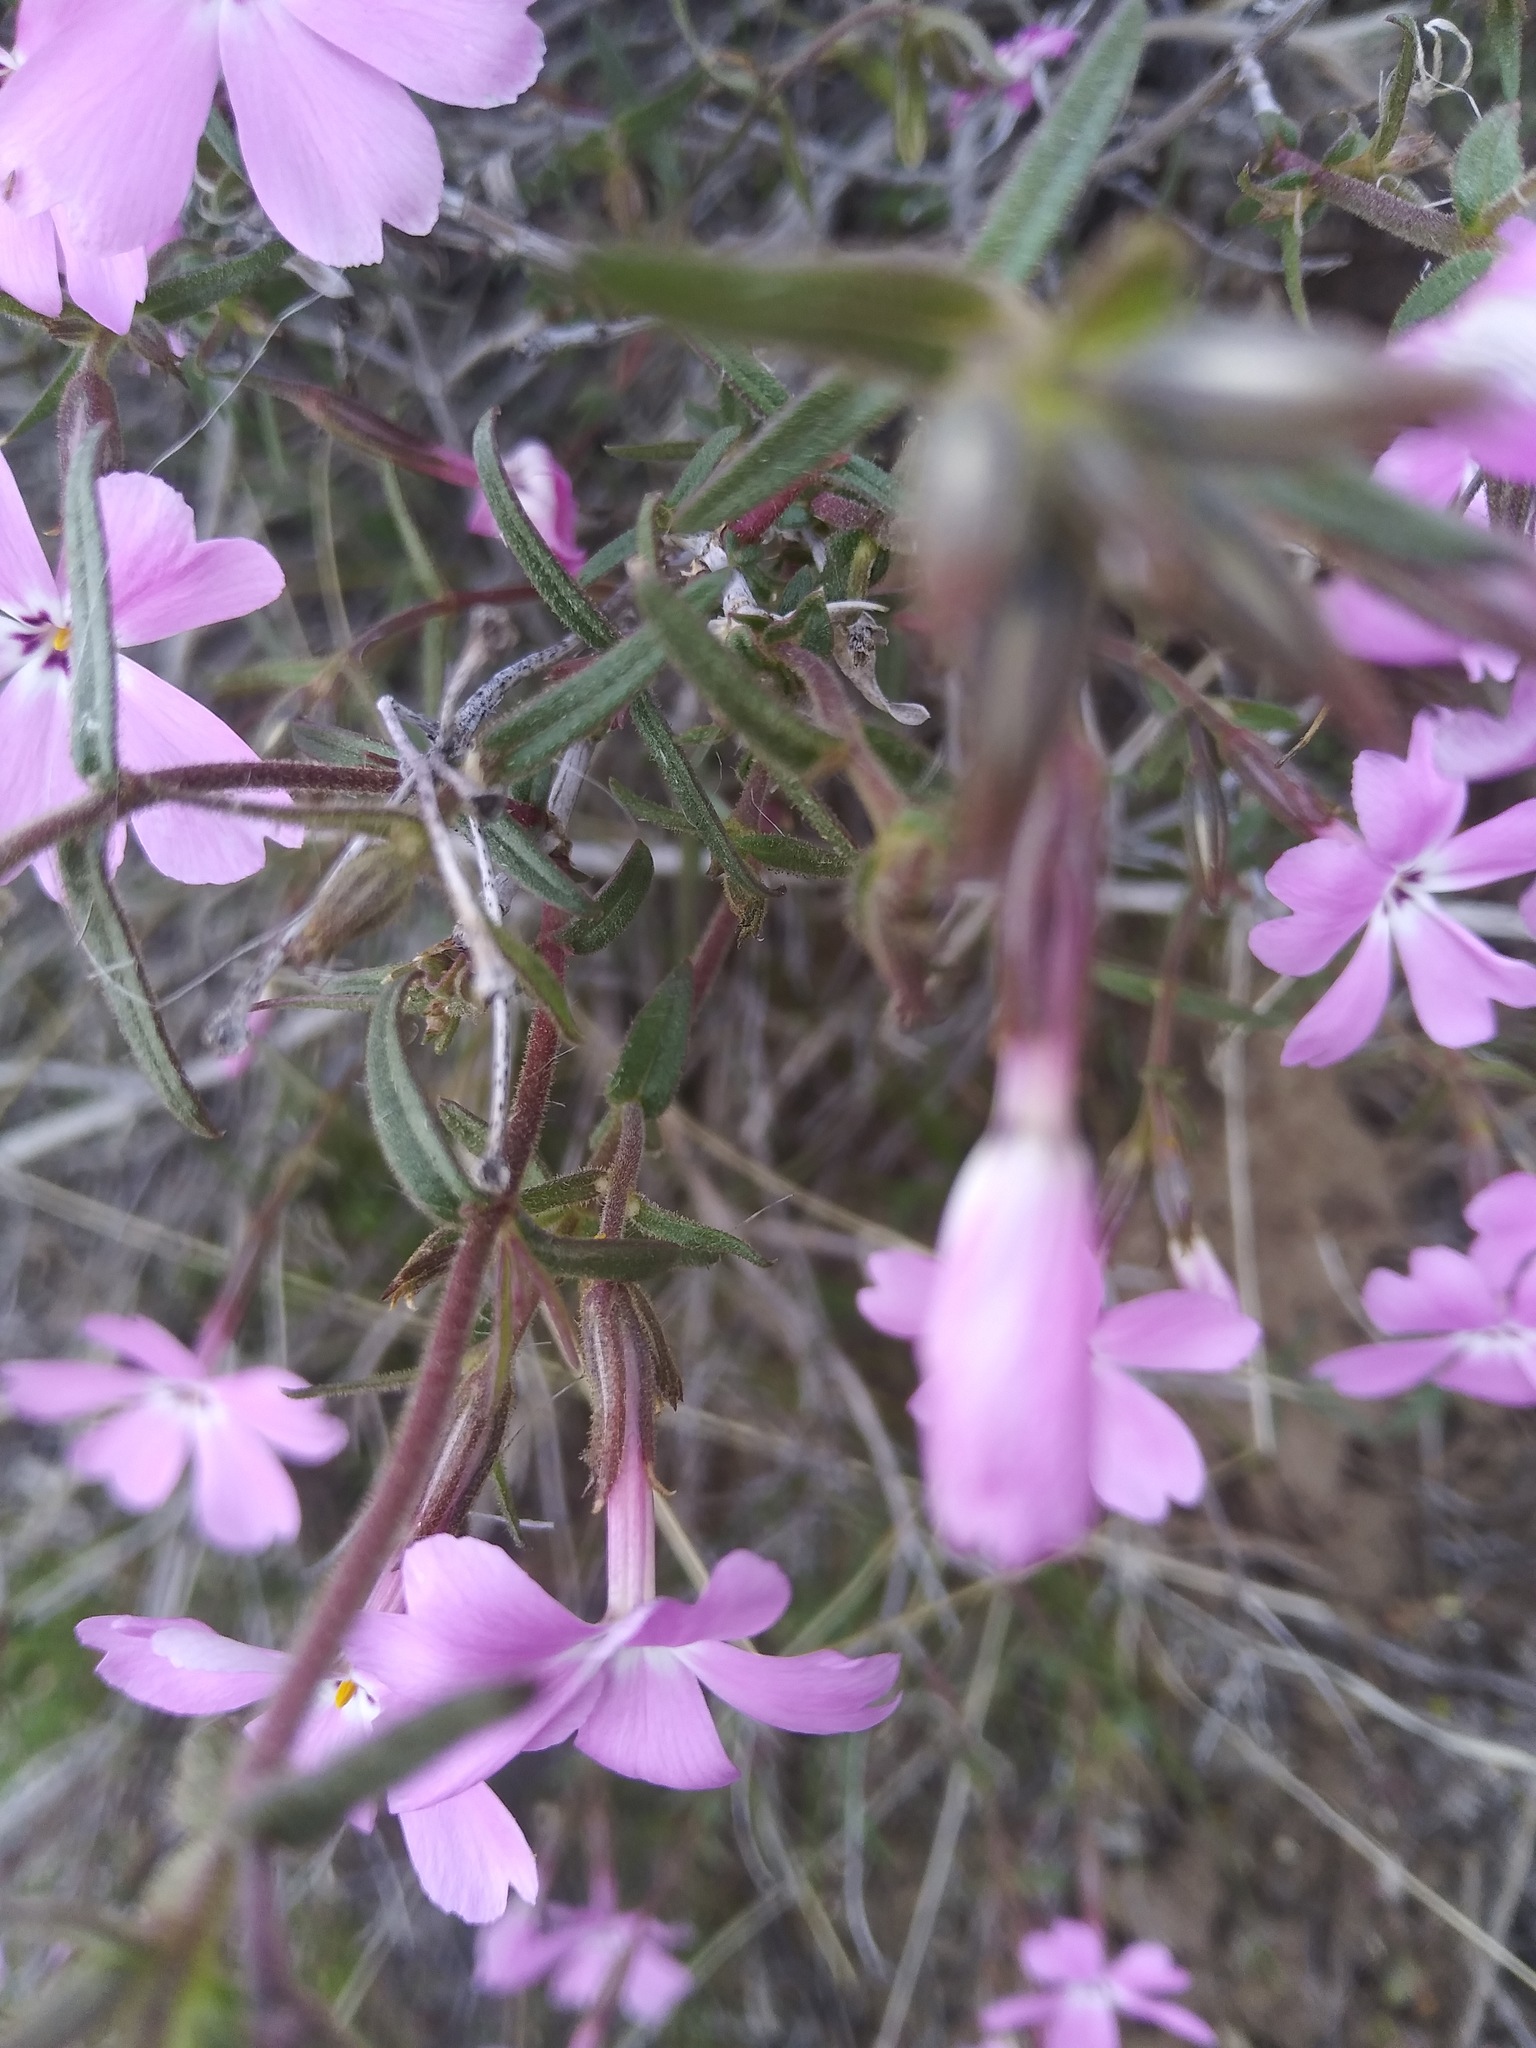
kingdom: Plantae
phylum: Tracheophyta
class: Magnoliopsida
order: Ericales
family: Polemoniaceae
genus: Phlox
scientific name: Phlox speciosa
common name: Bush phlox
